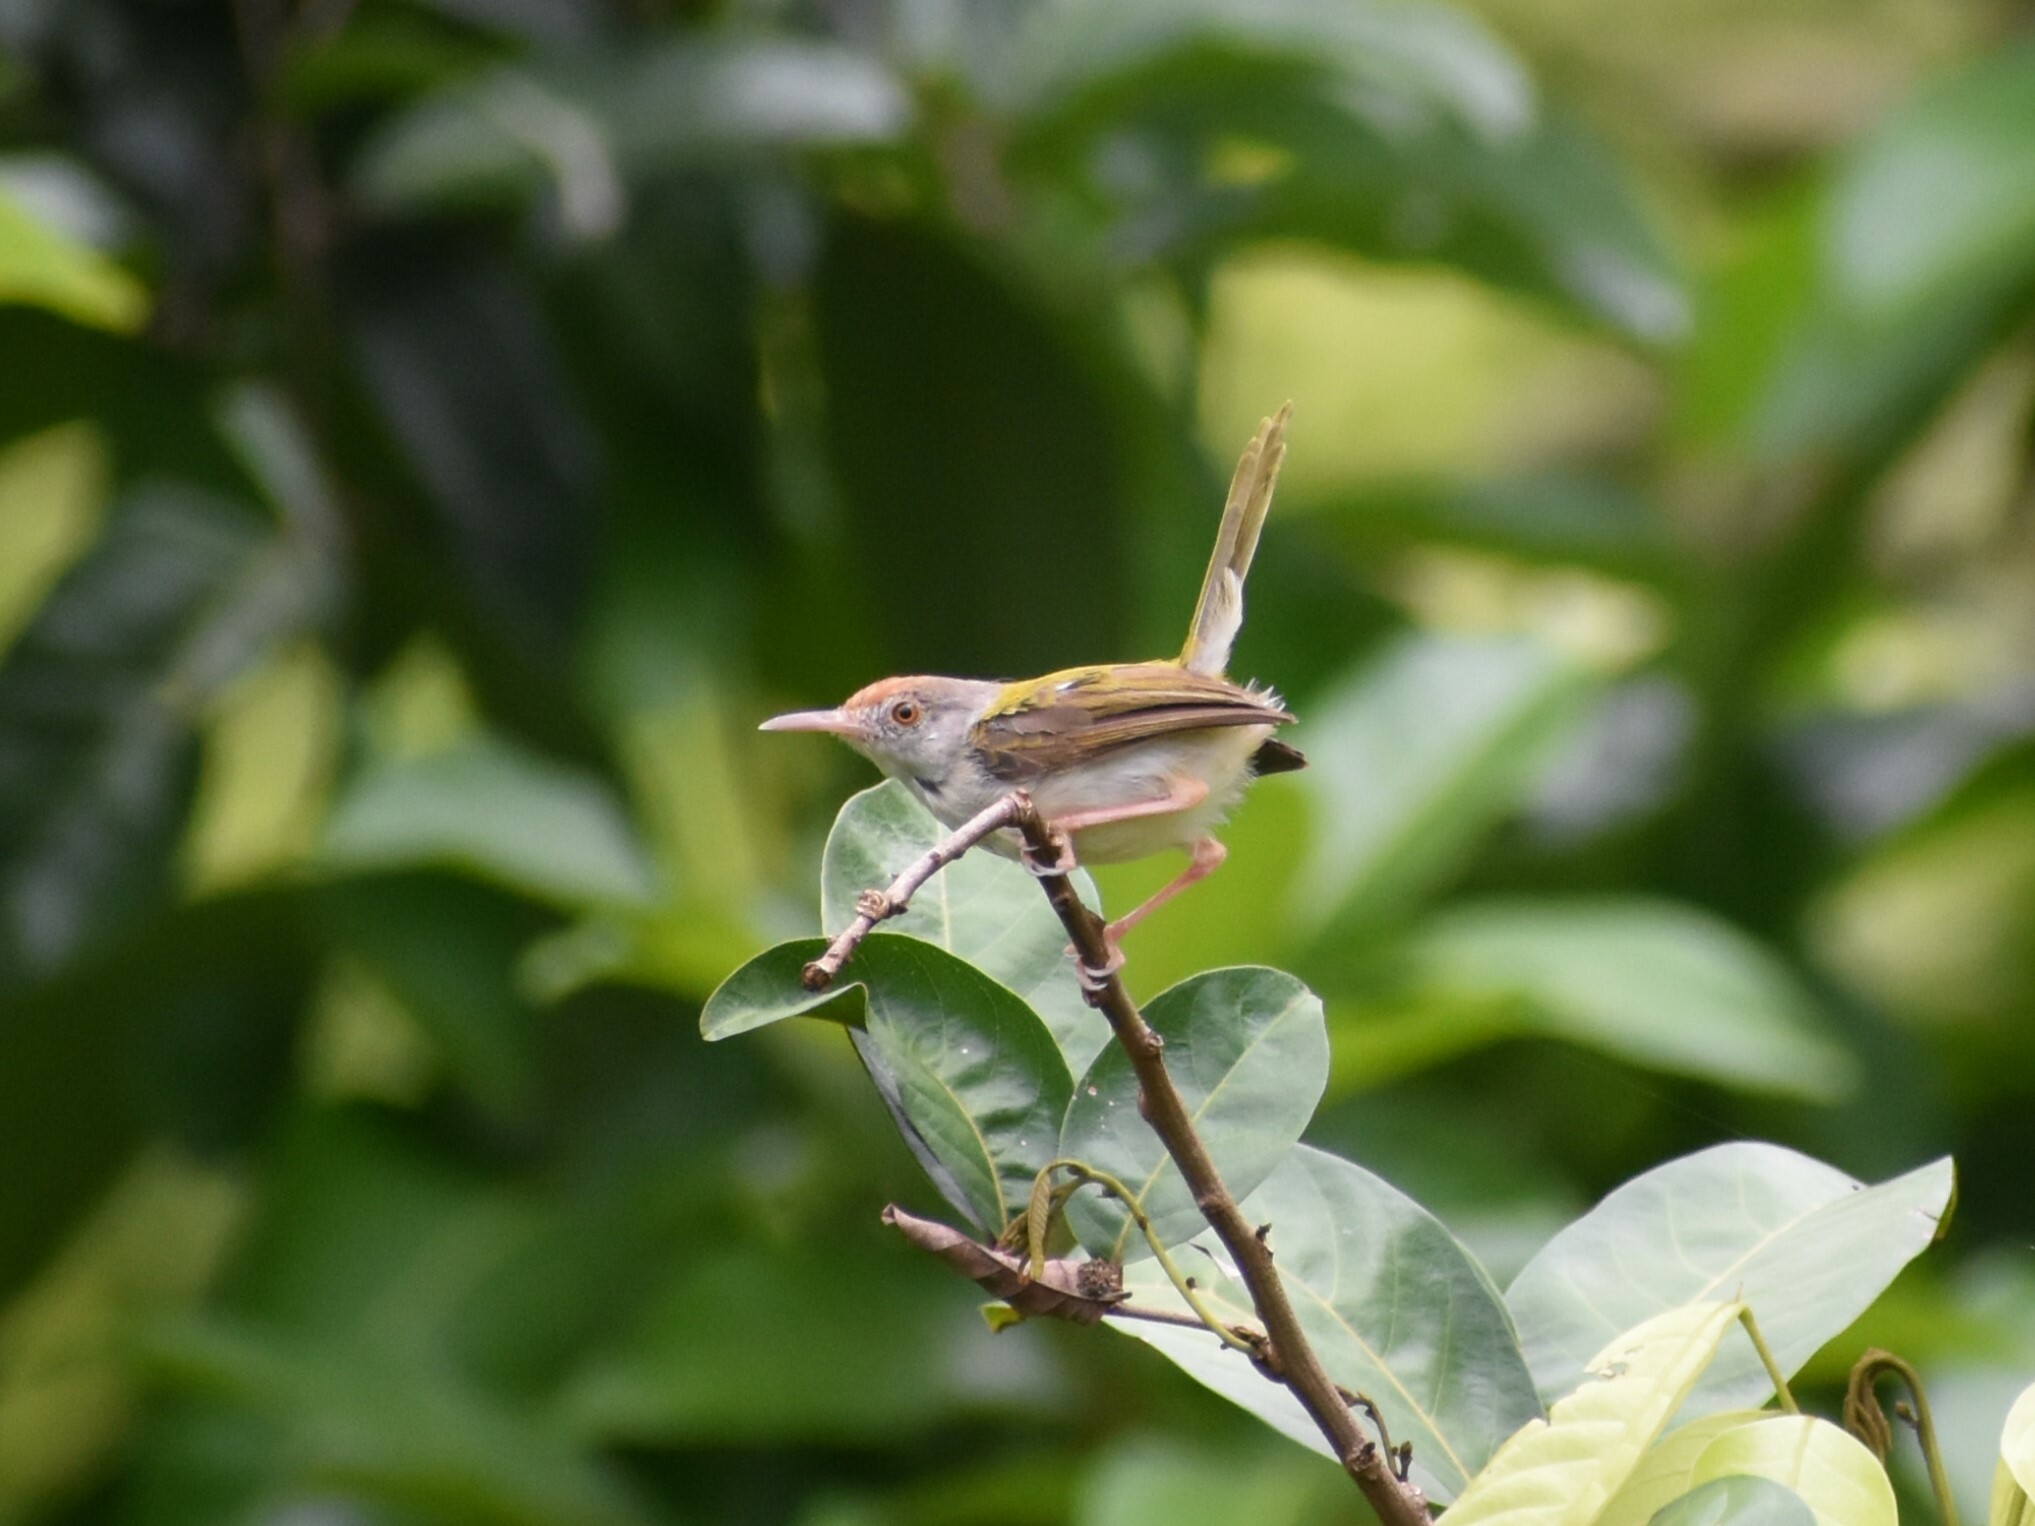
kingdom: Animalia
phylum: Chordata
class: Aves
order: Passeriformes
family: Cisticolidae
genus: Orthotomus
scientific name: Orthotomus sutorius
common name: Common tailorbird
